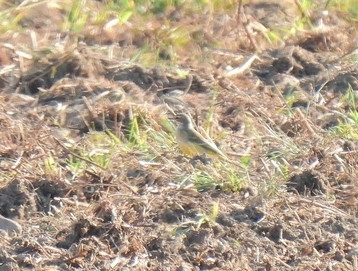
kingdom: Animalia
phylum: Chordata
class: Aves
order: Passeriformes
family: Motacillidae
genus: Motacilla
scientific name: Motacilla flava
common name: Western yellow wagtail
